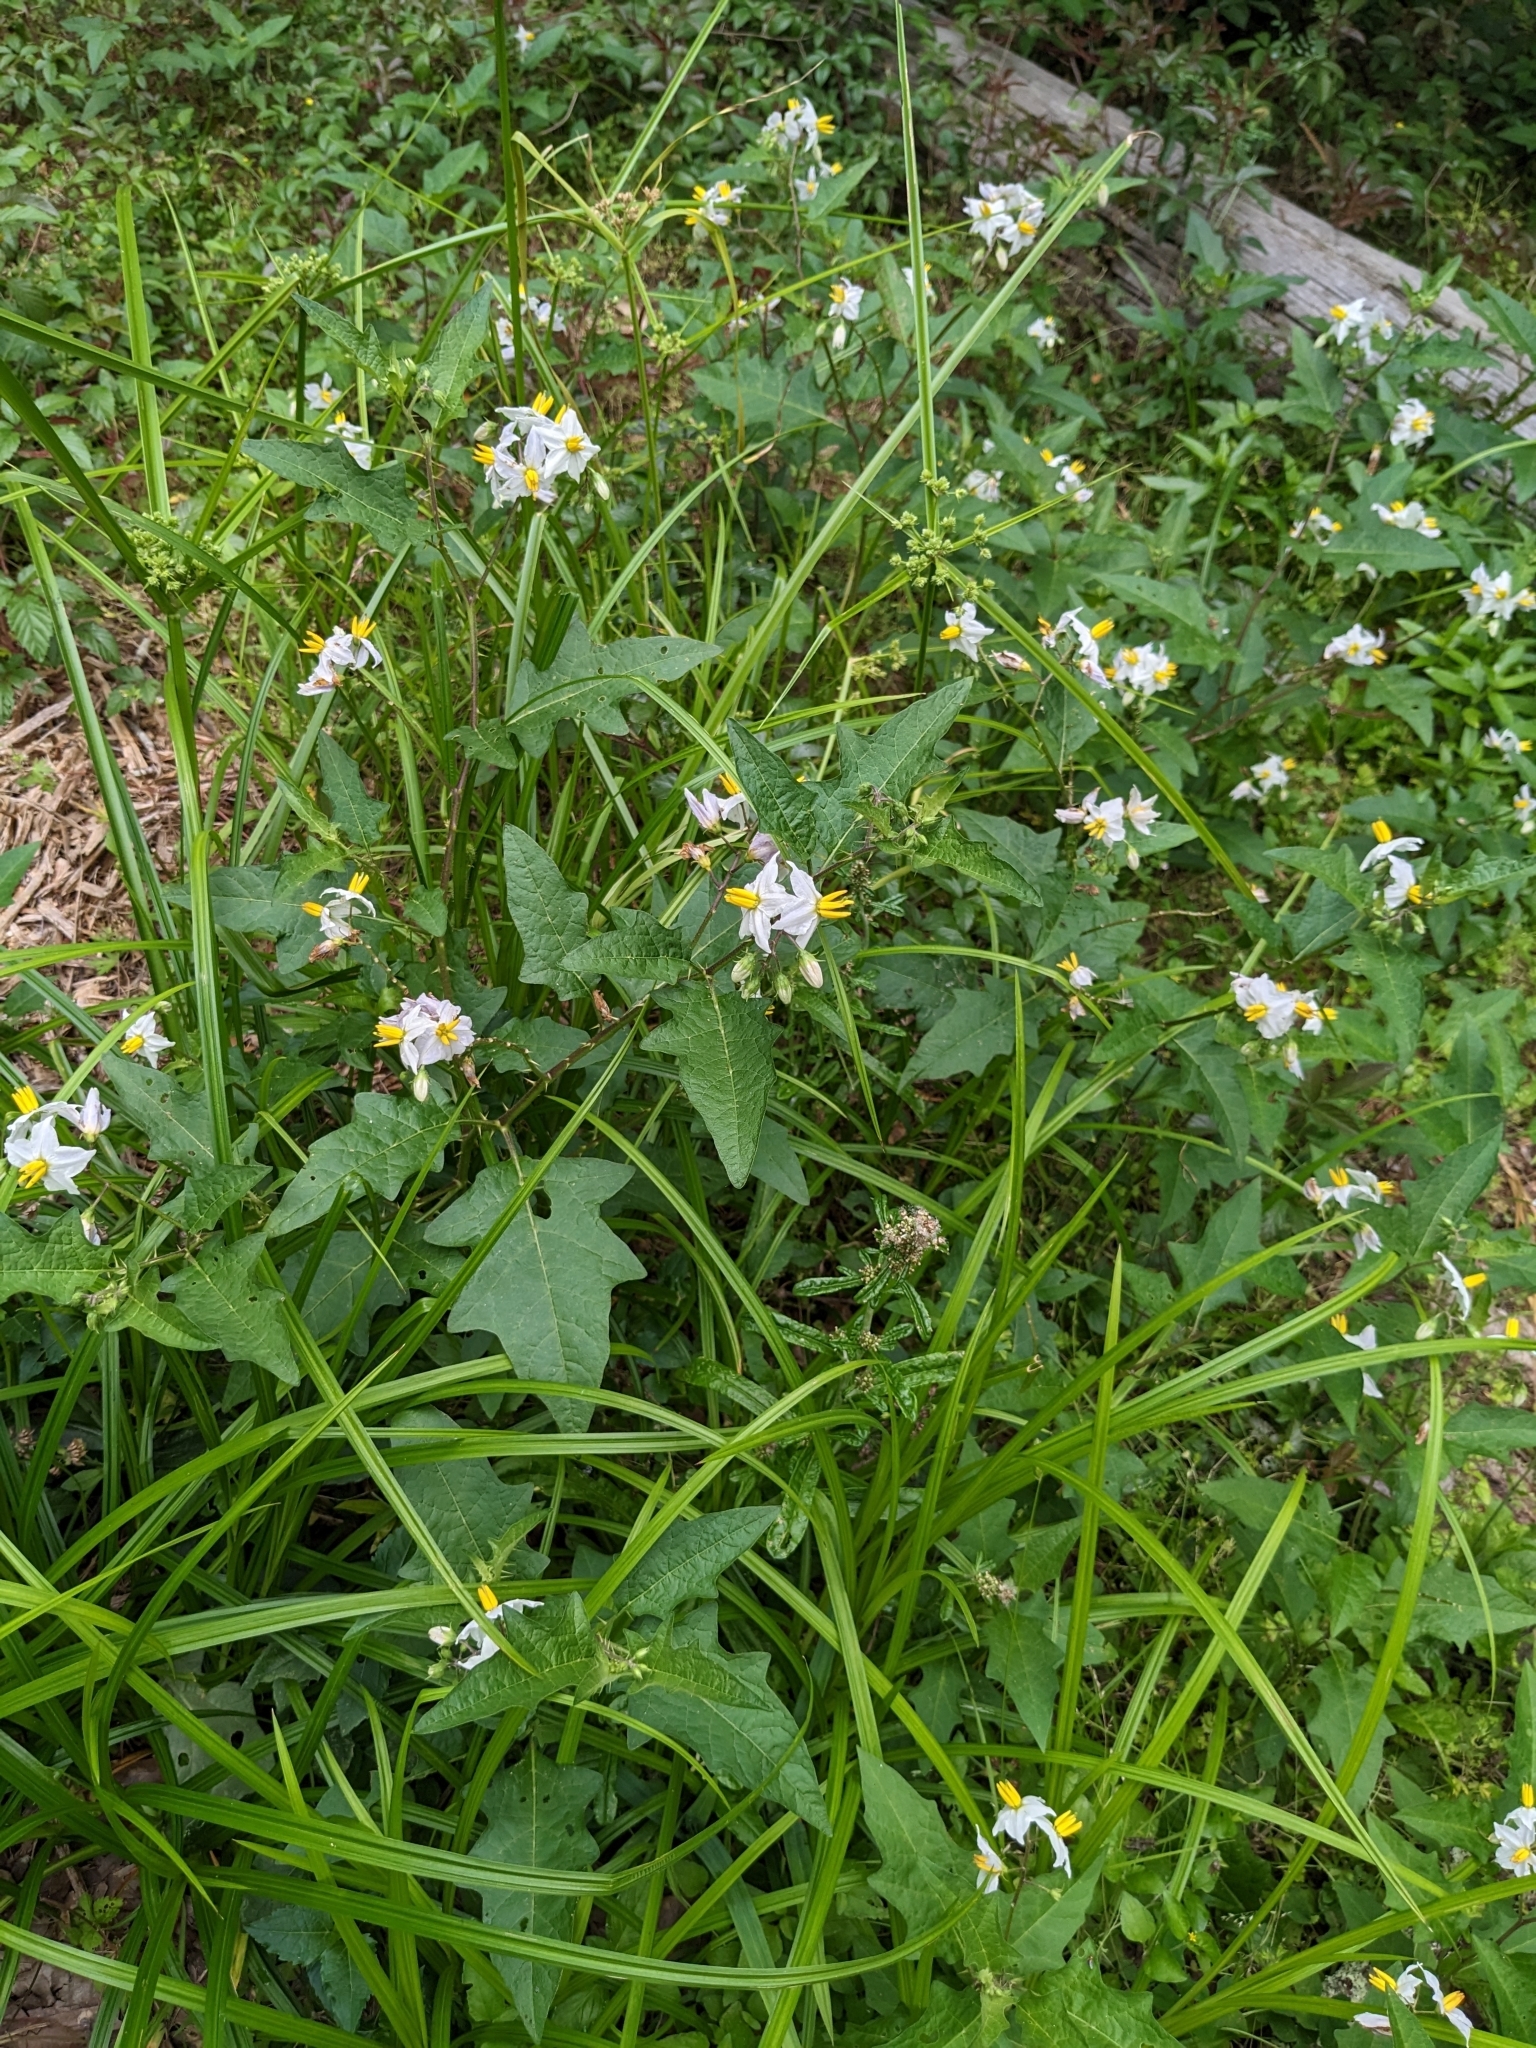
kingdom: Plantae
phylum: Tracheophyta
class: Magnoliopsida
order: Solanales
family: Solanaceae
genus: Solanum
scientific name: Solanum carolinense
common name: Horse-nettle
